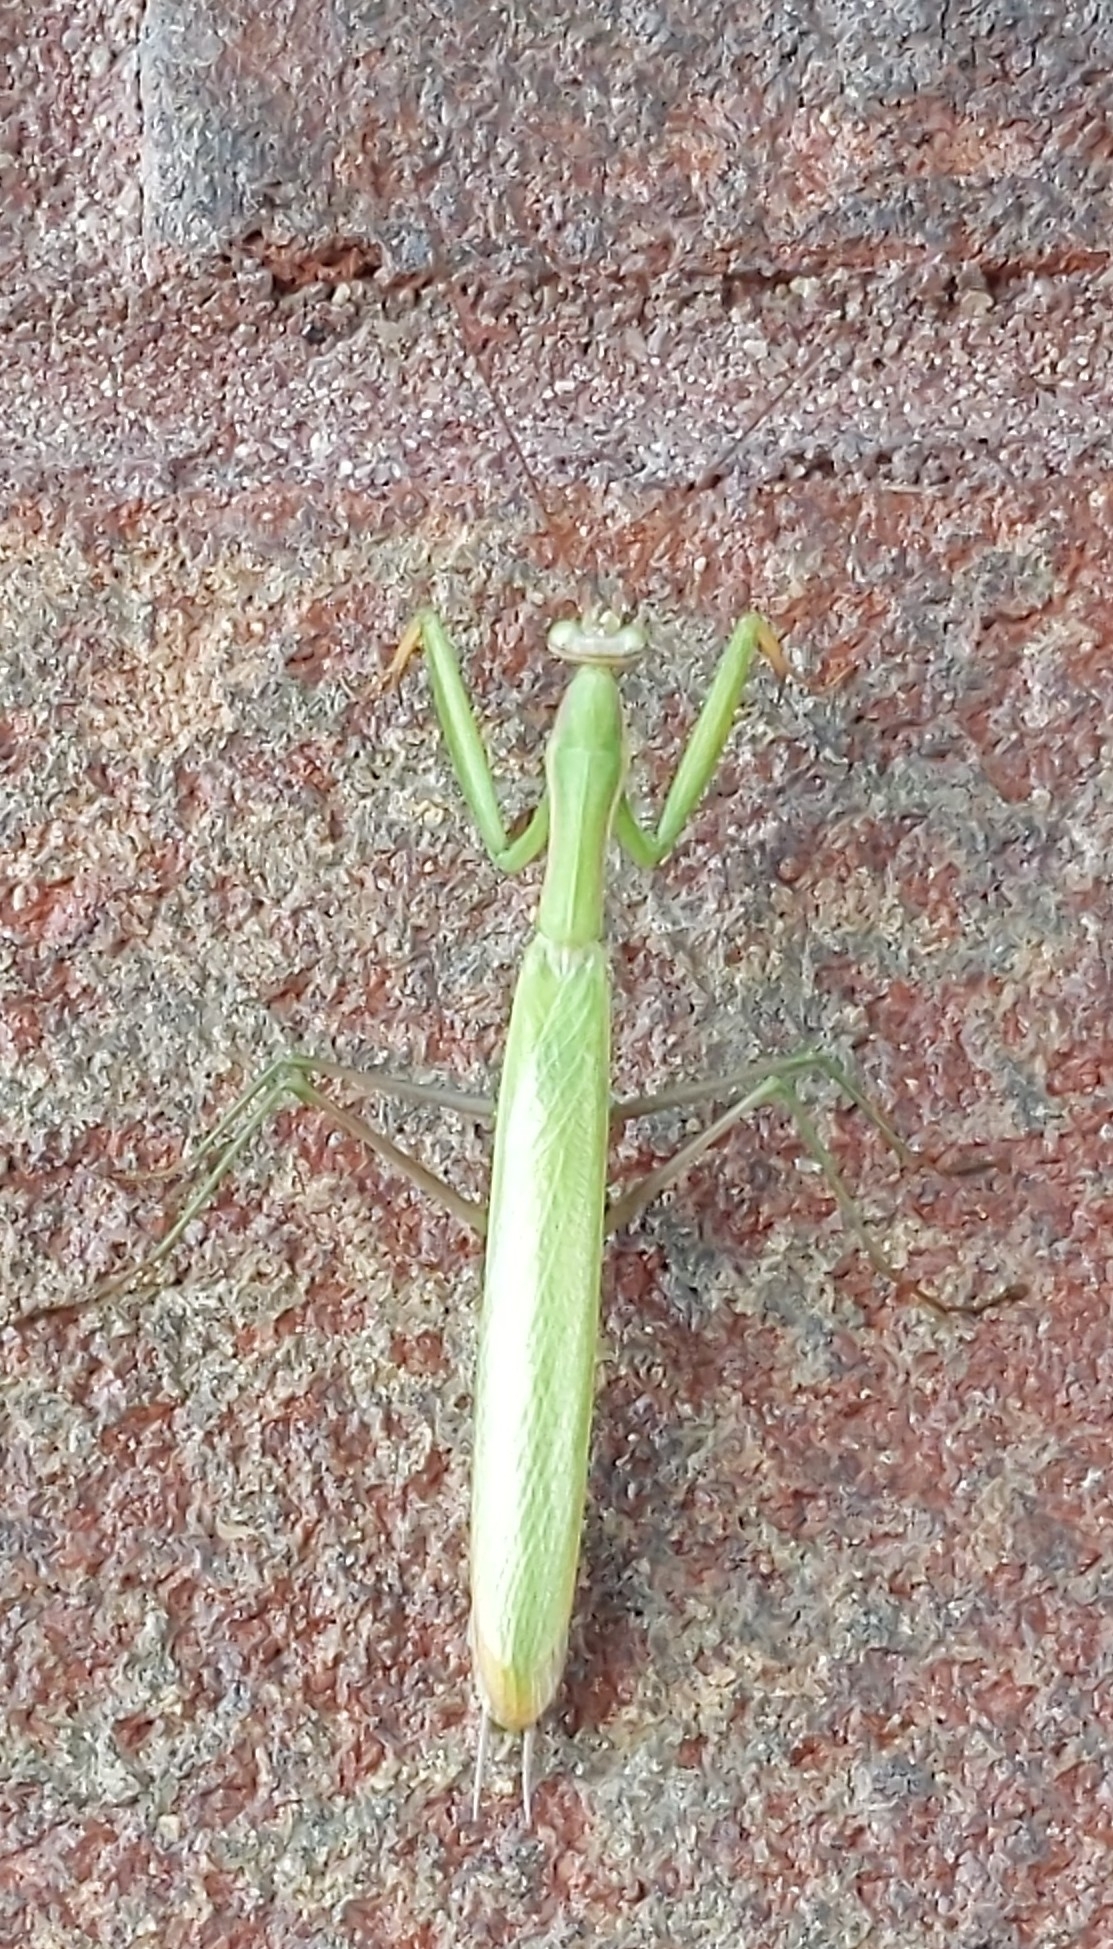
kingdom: Animalia
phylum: Arthropoda
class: Insecta
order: Mantodea
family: Mantidae
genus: Mantis
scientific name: Mantis religiosa
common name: Praying mantis
